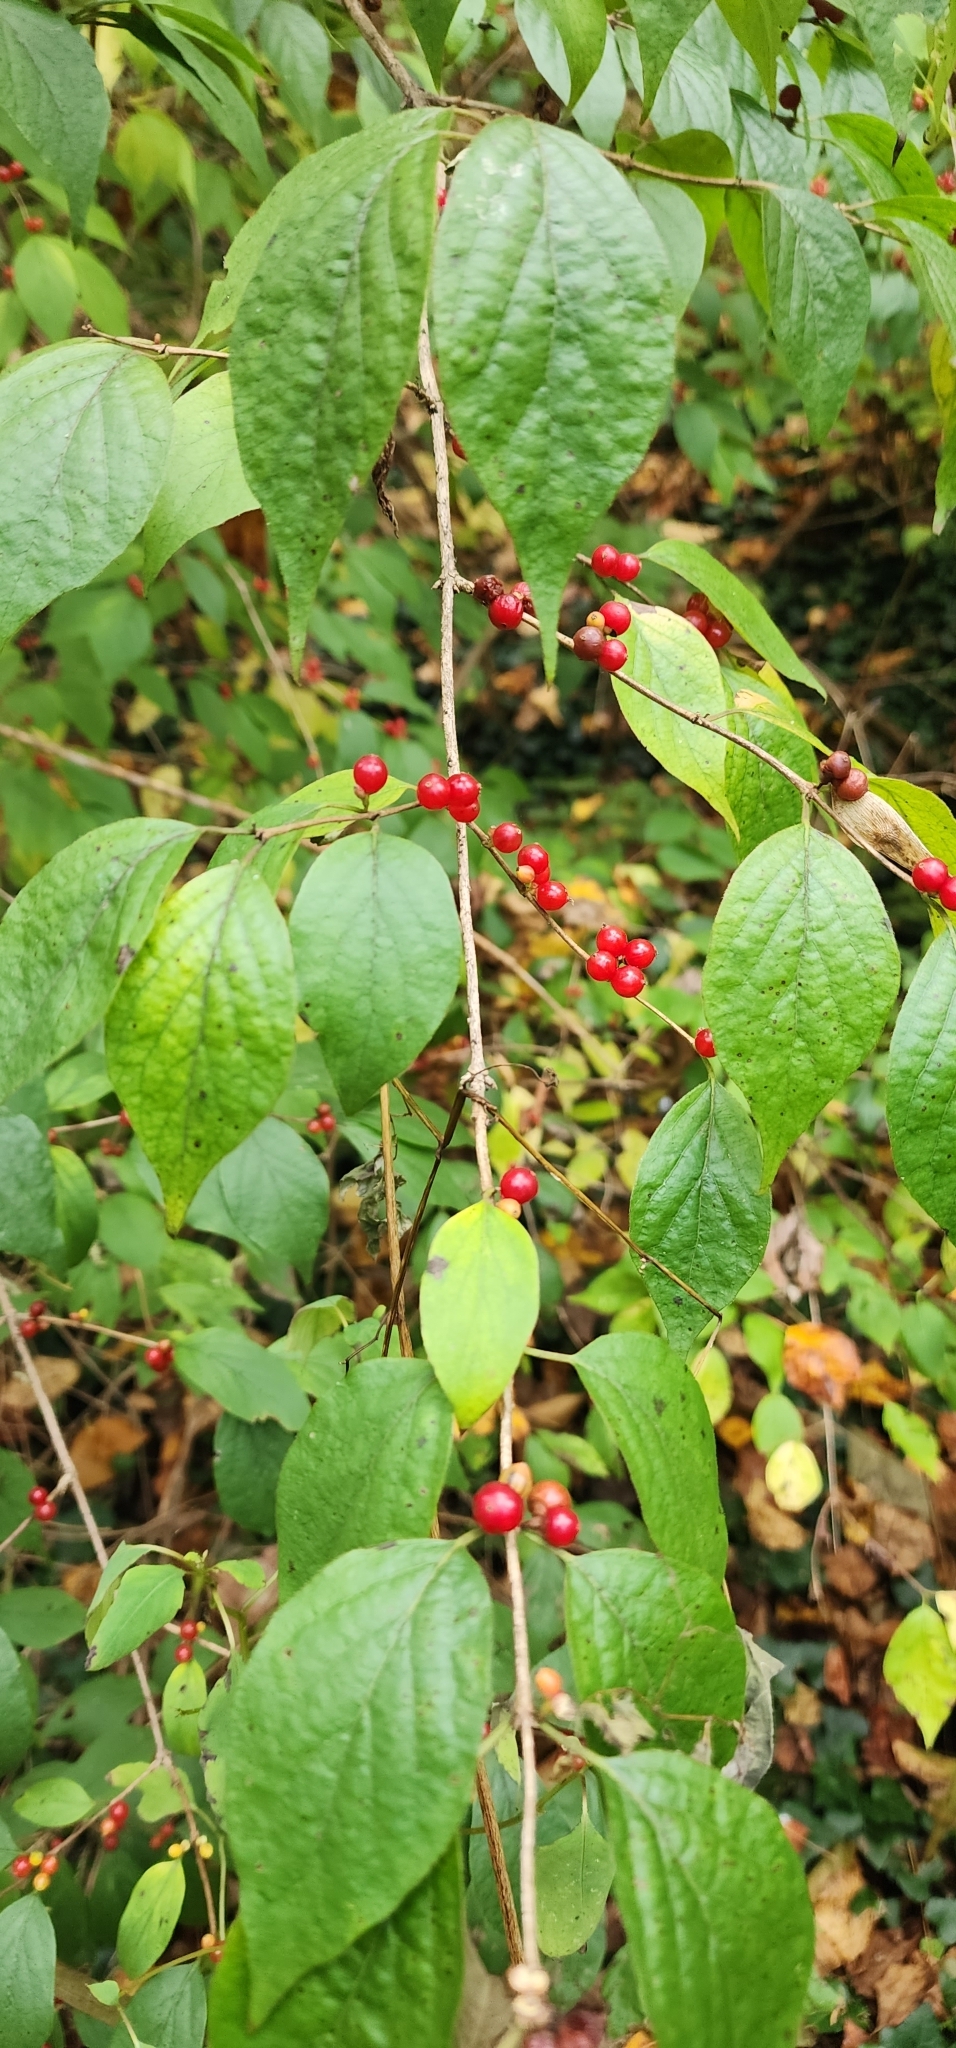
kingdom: Plantae
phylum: Tracheophyta
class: Magnoliopsida
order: Dipsacales
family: Caprifoliaceae
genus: Lonicera
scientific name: Lonicera maackii
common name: Amur honeysuckle
